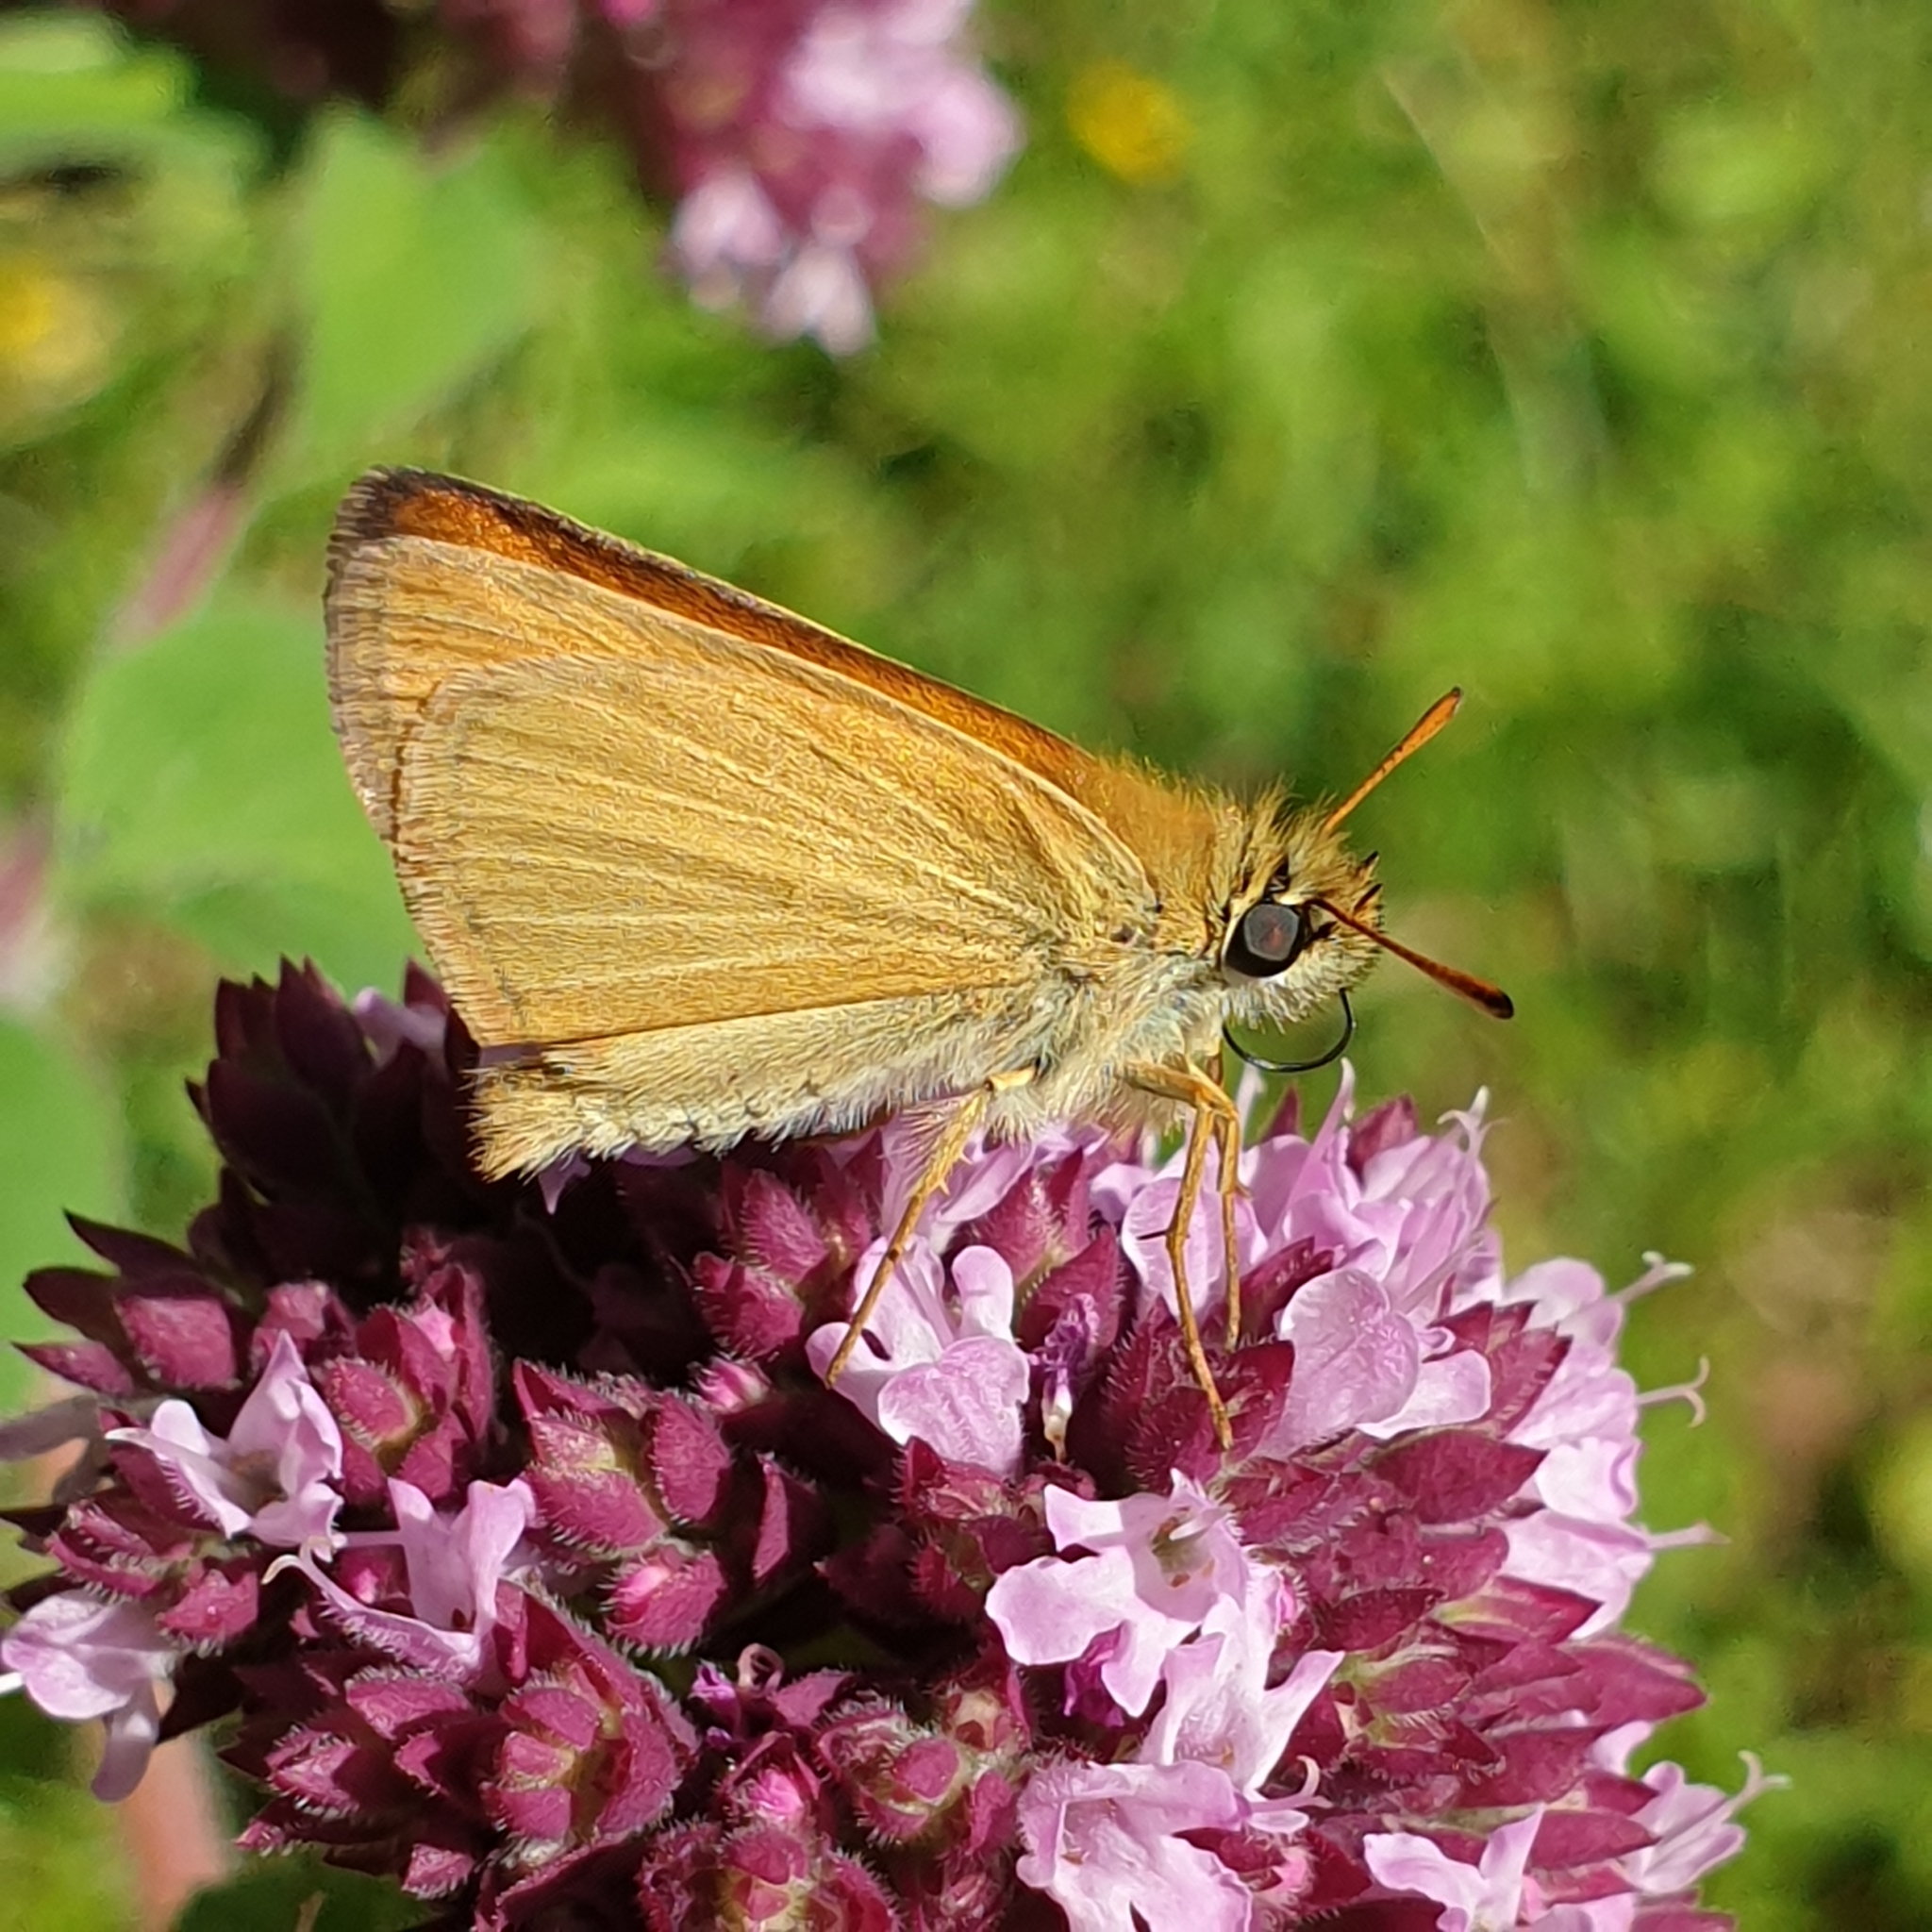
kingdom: Animalia
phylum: Arthropoda
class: Insecta
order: Lepidoptera
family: Hesperiidae
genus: Thymelicus
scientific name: Thymelicus lineola
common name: Essex skipper
